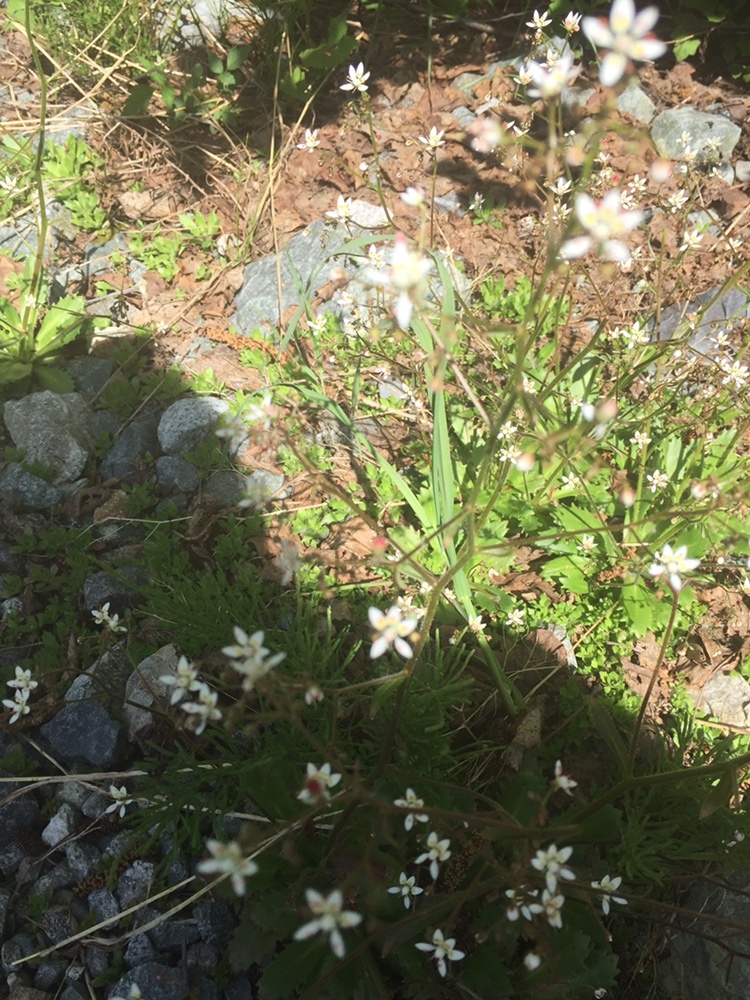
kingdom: Plantae
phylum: Tracheophyta
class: Magnoliopsida
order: Saxifragales
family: Saxifragaceae
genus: Micranthes
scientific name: Micranthes ferruginea
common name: Rusty saxifrage
